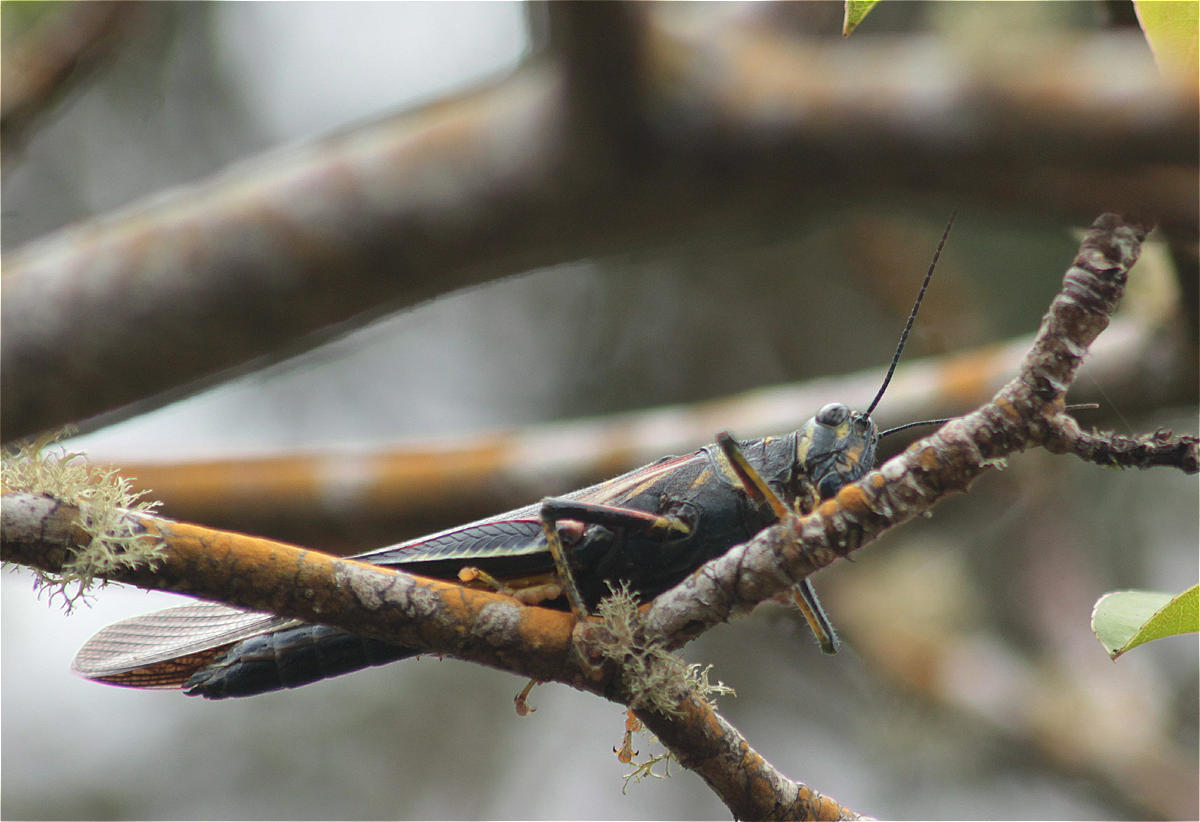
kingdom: Animalia
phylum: Arthropoda
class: Insecta
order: Orthoptera
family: Acrididae
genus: Schistocerca
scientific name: Schistocerca melanocera
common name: Large painted locust
